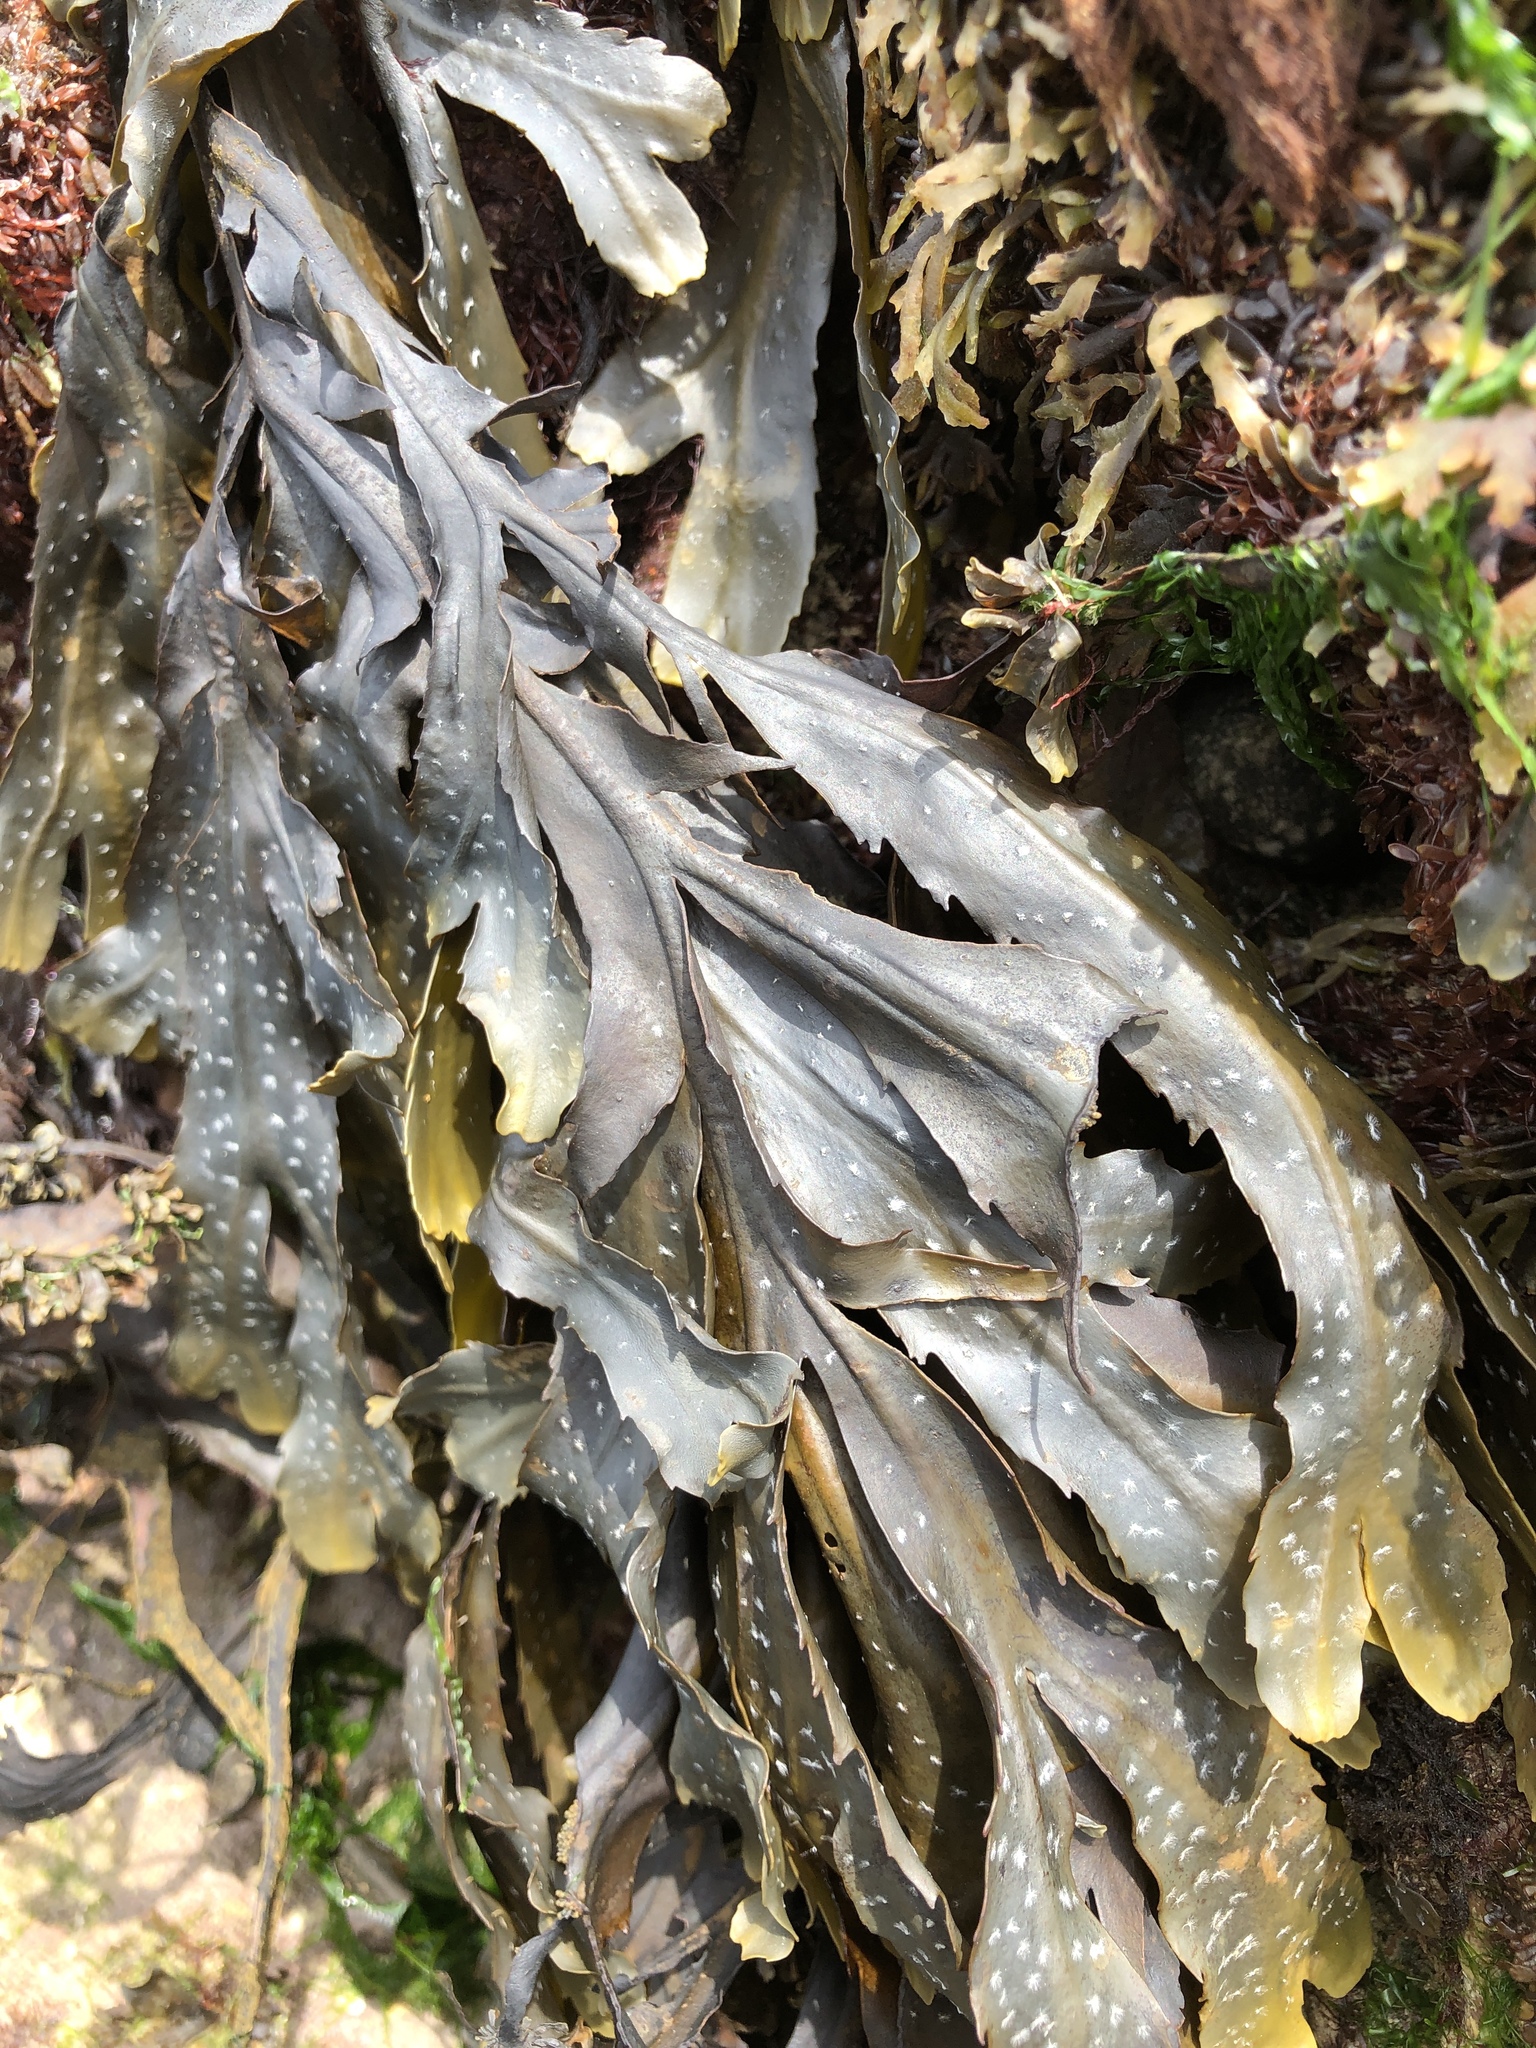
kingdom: Chromista
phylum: Ochrophyta
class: Phaeophyceae
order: Fucales
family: Fucaceae
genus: Fucus
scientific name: Fucus serratus
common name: Toothed wrack
